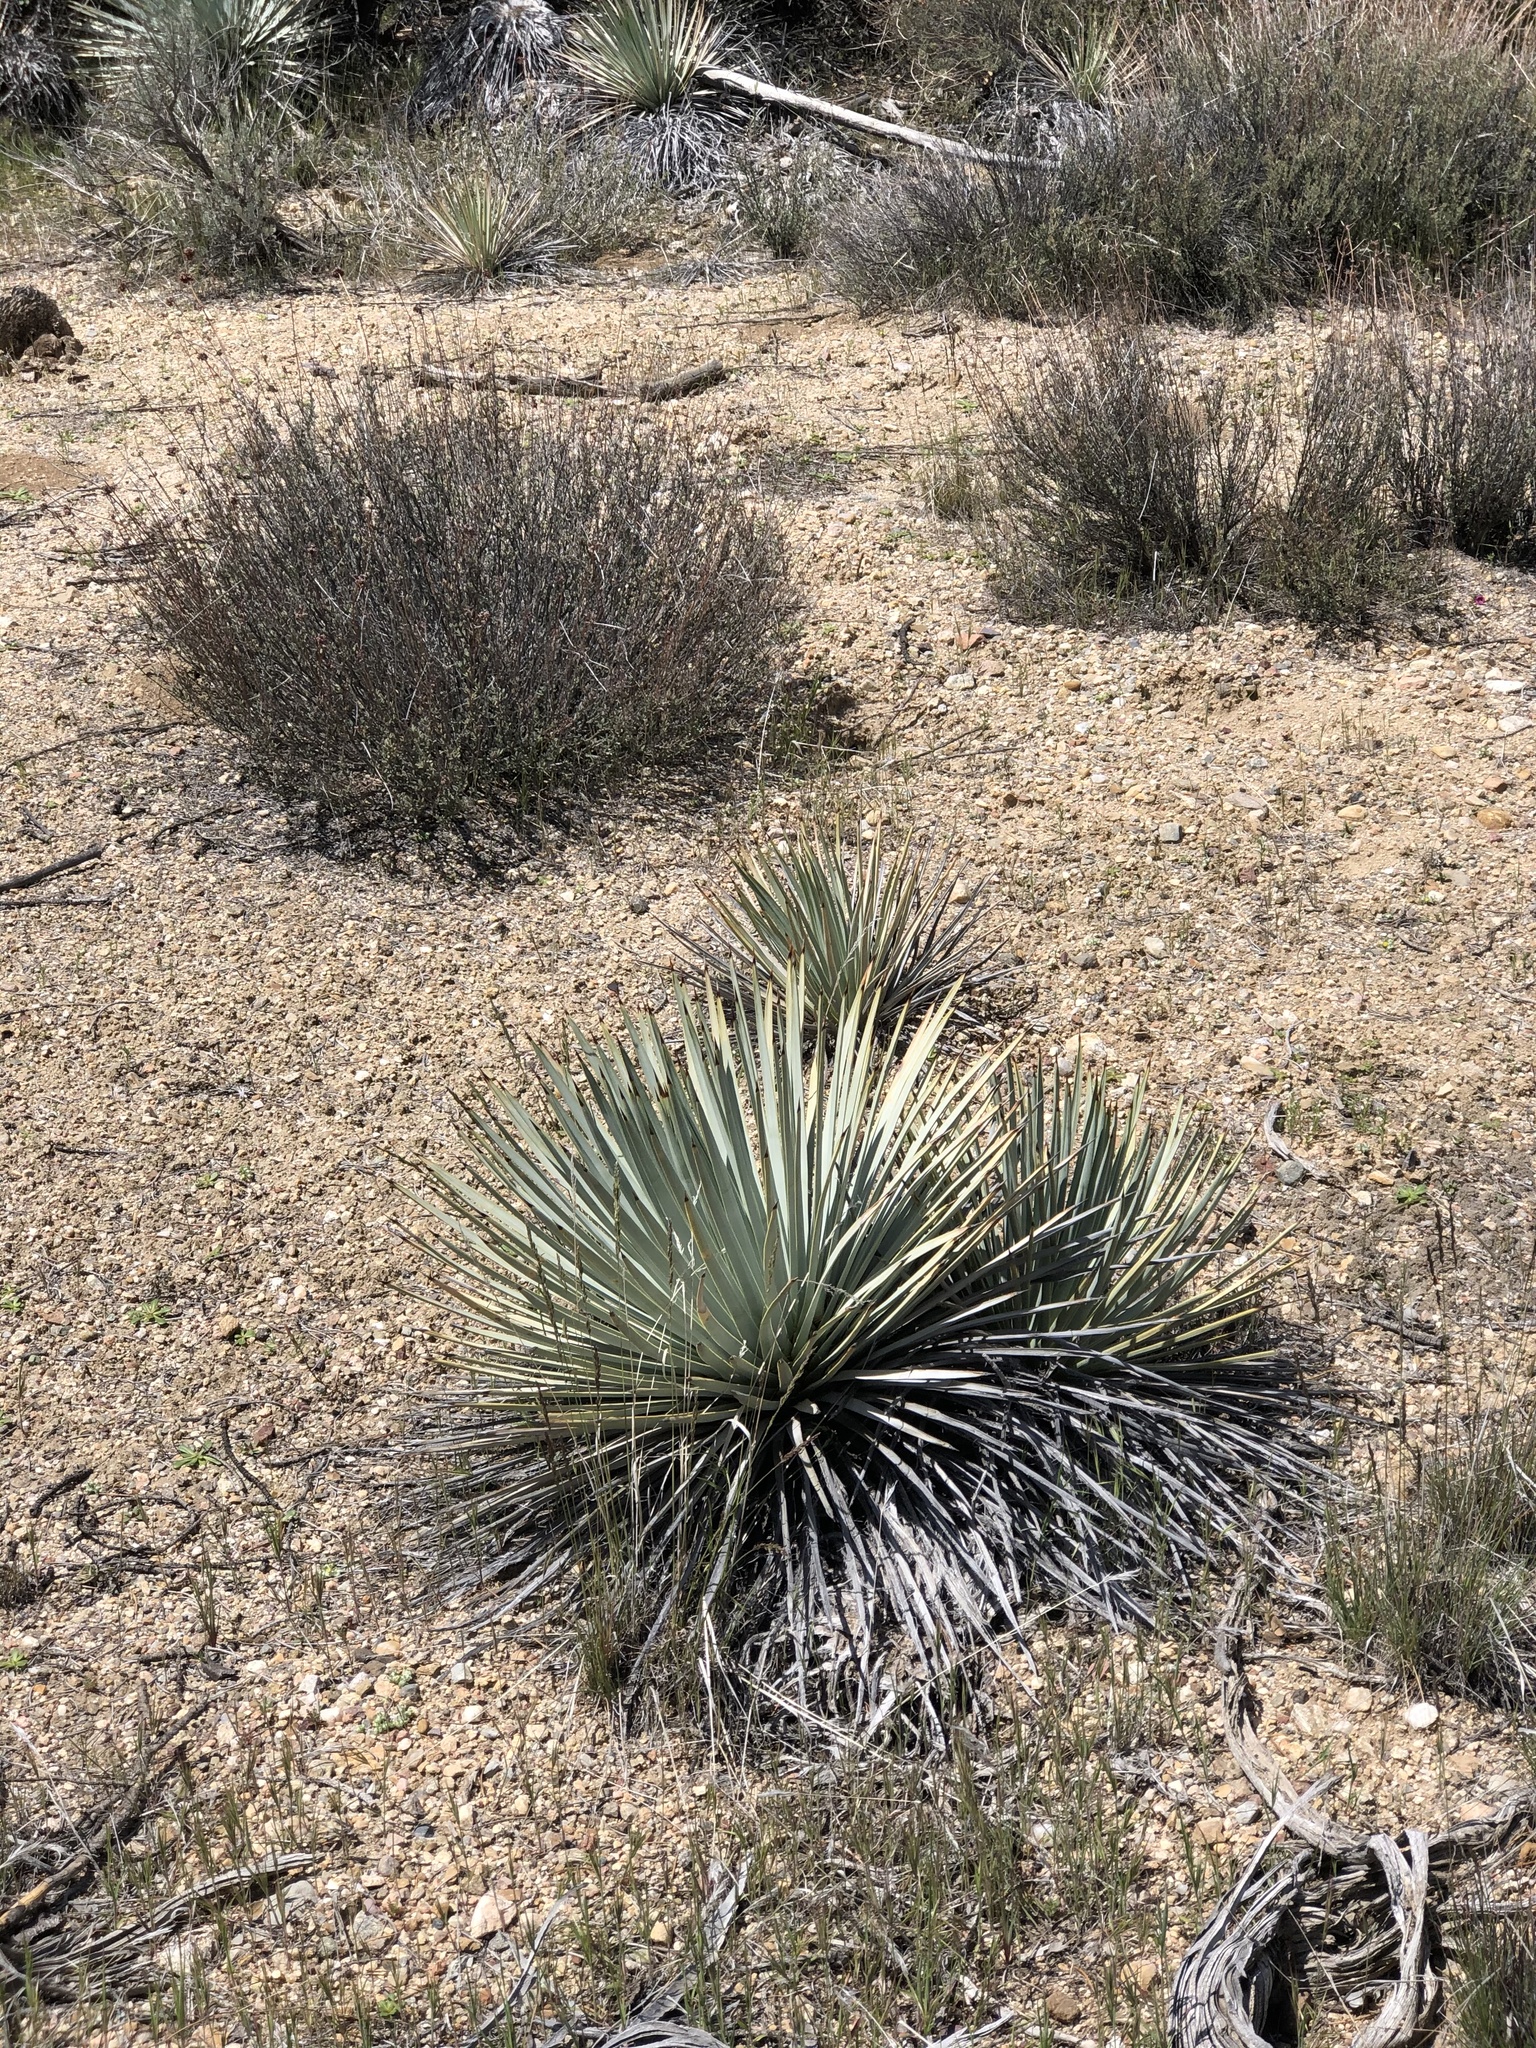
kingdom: Plantae
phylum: Tracheophyta
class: Liliopsida
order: Asparagales
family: Asparagaceae
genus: Hesperoyucca
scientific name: Hesperoyucca whipplei
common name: Our lord's-candle
